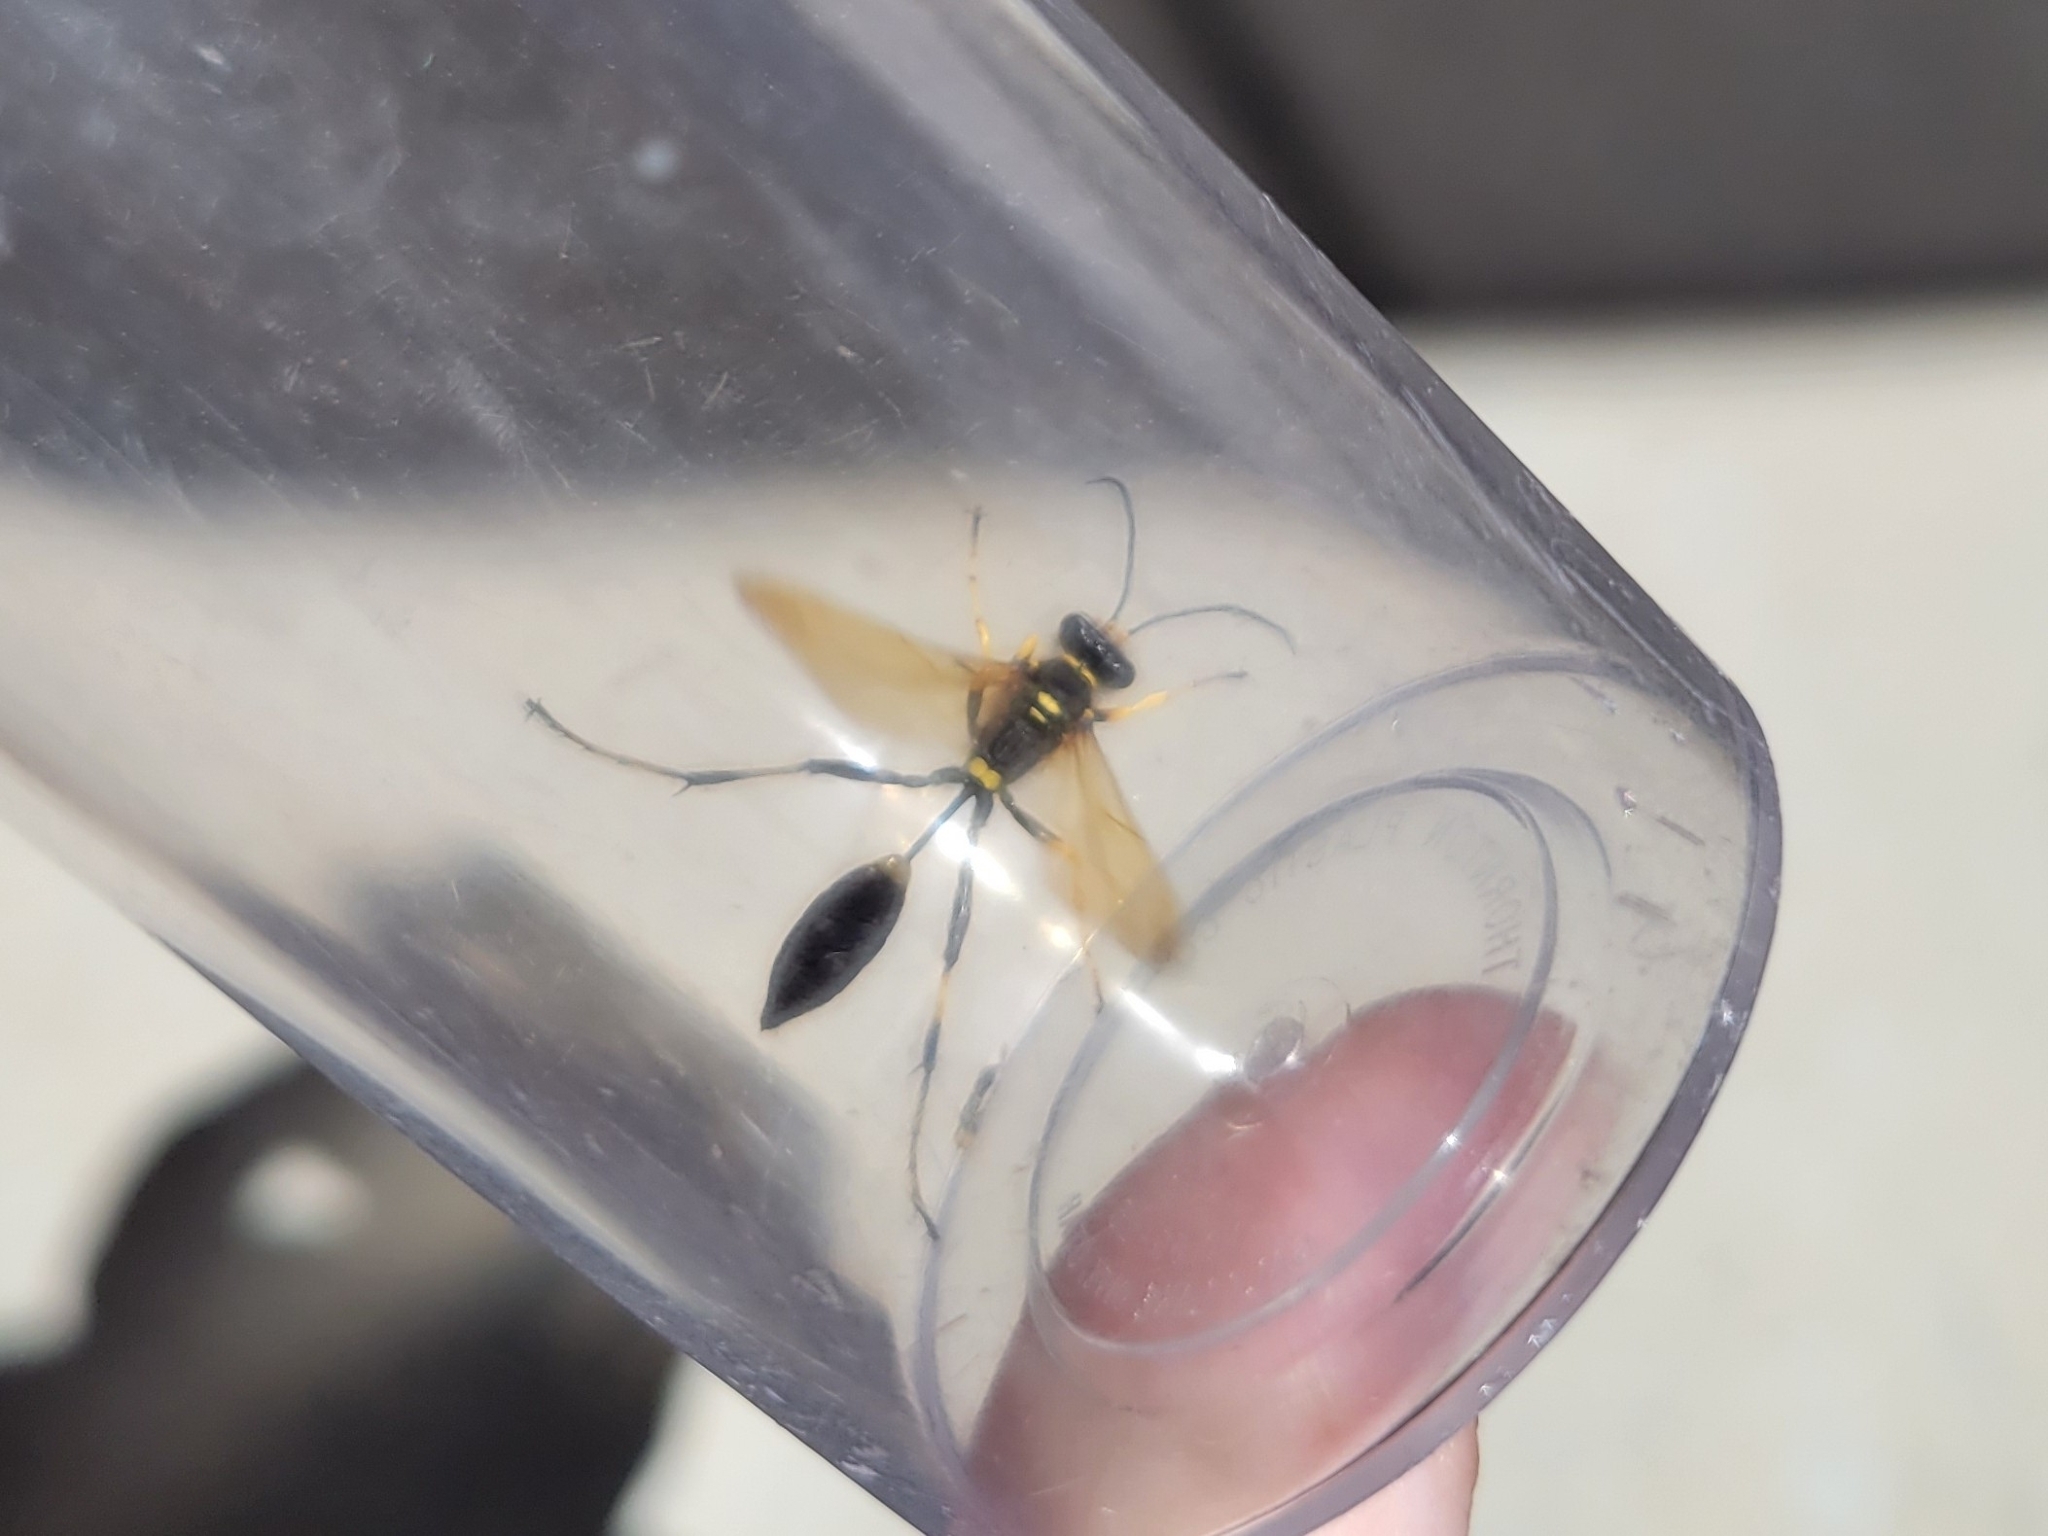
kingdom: Animalia
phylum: Arthropoda
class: Insecta
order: Hymenoptera
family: Sphecidae
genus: Sceliphron
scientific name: Sceliphron caementarium
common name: Mud dauber
